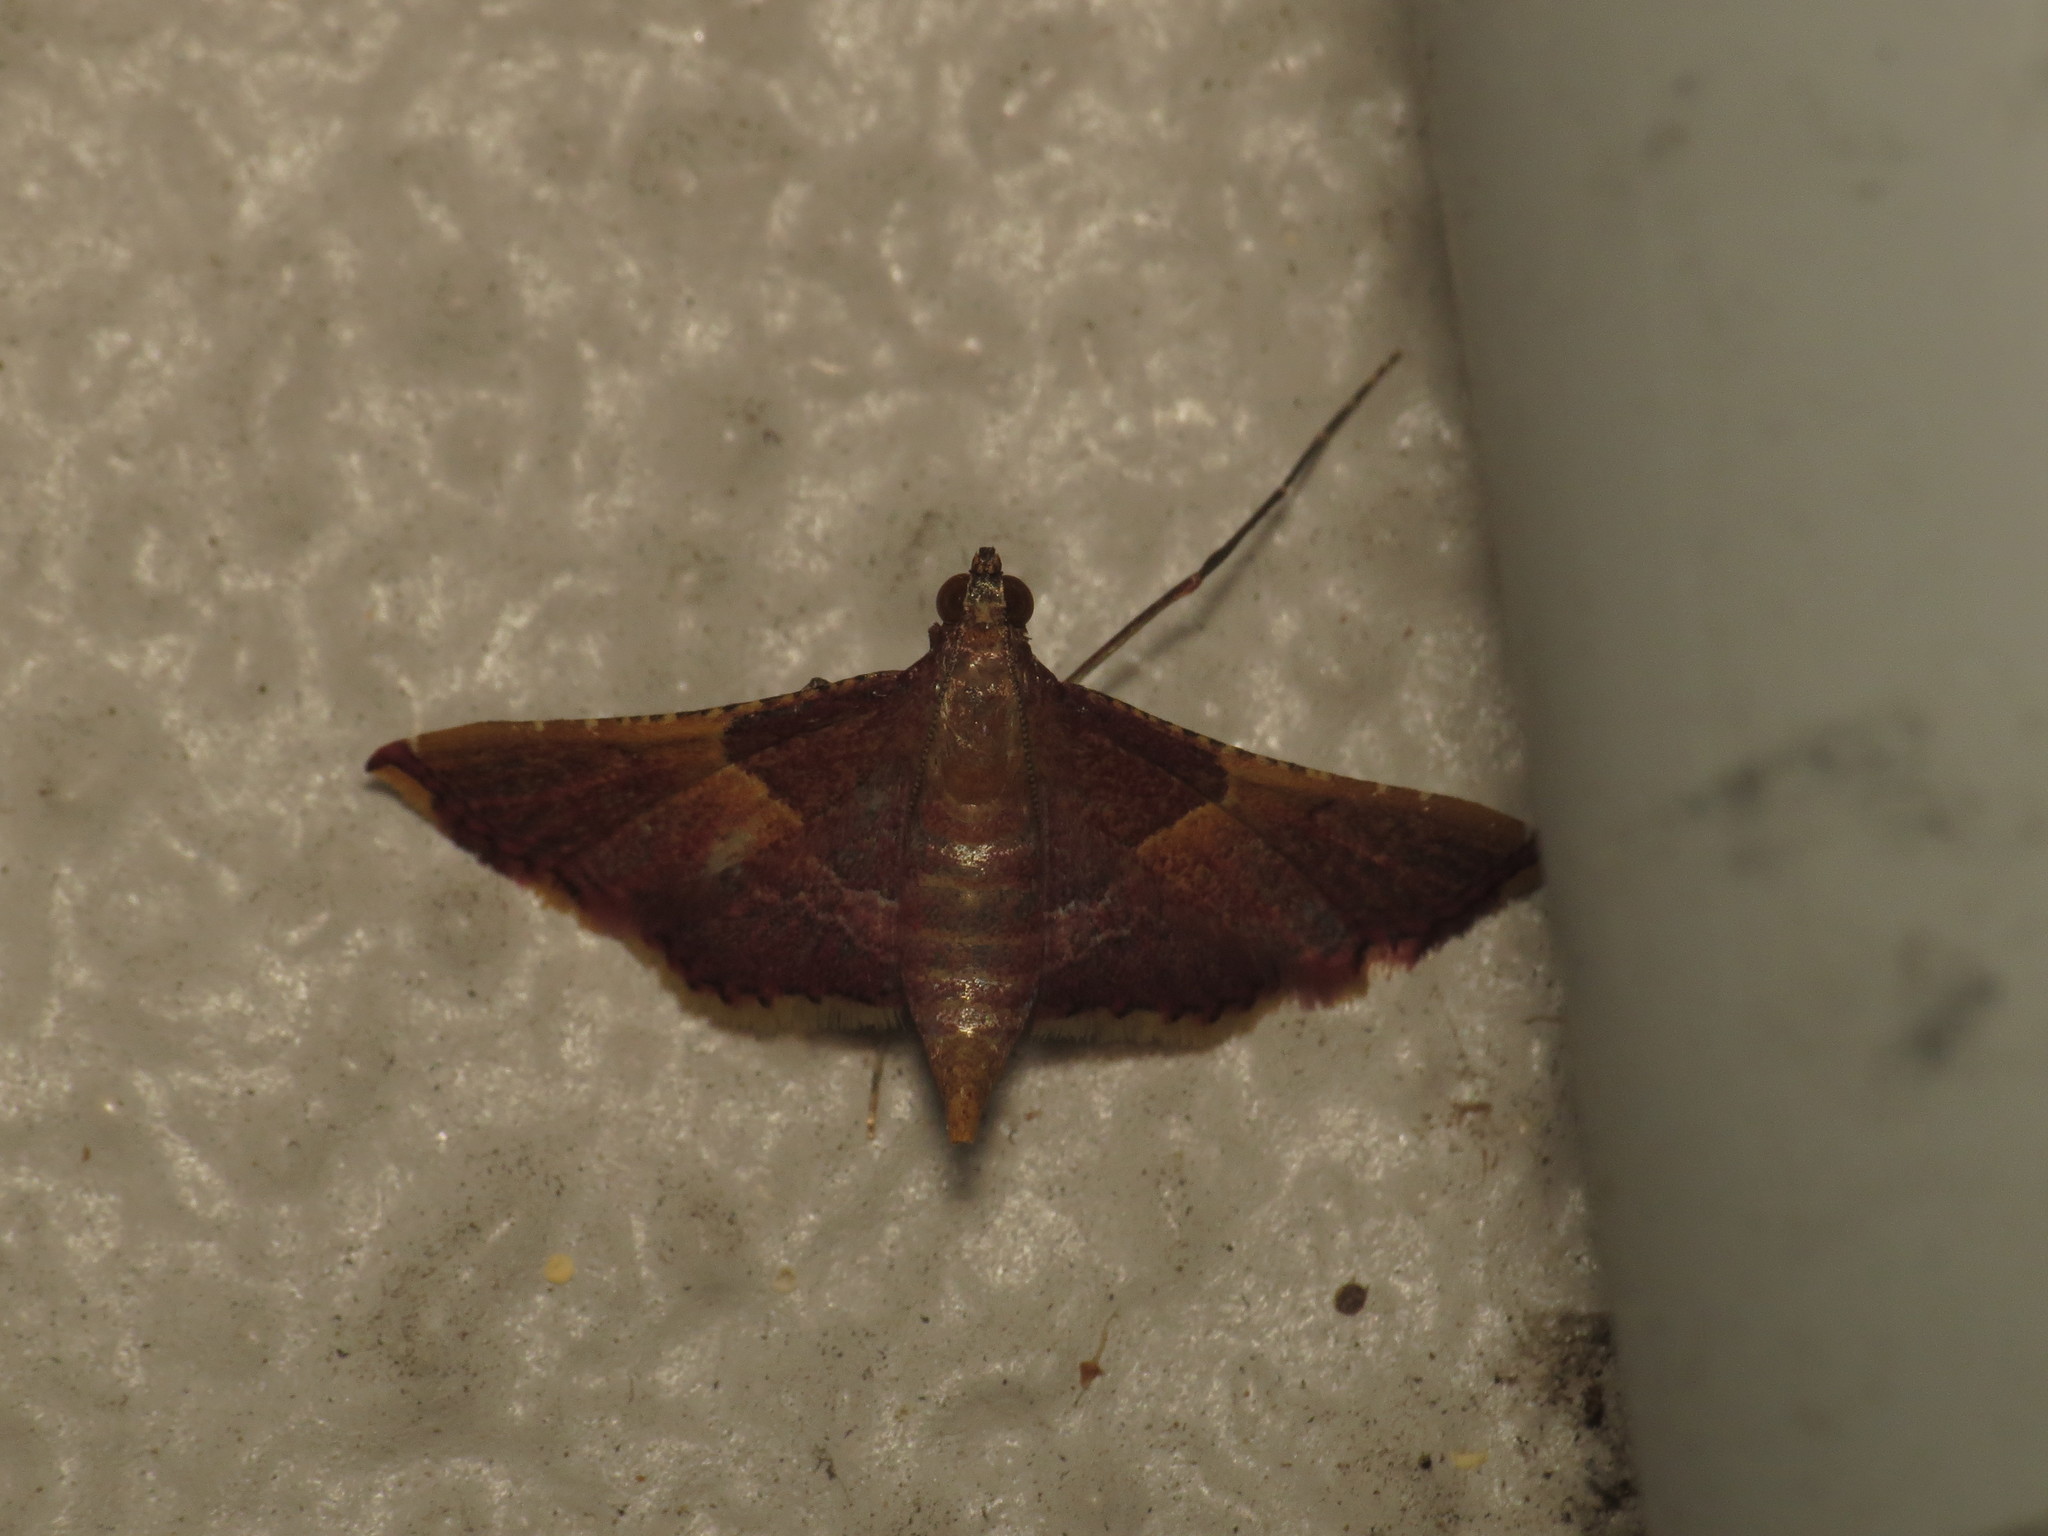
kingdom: Animalia
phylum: Arthropoda
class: Insecta
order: Lepidoptera
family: Pyralidae
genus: Endotricha
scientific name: Endotricha mesenterialis
